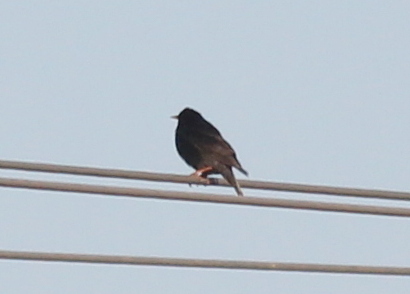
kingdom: Animalia
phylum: Chordata
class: Aves
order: Passeriformes
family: Sturnidae
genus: Sturnus
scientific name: Sturnus unicolor
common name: Spotless starling
